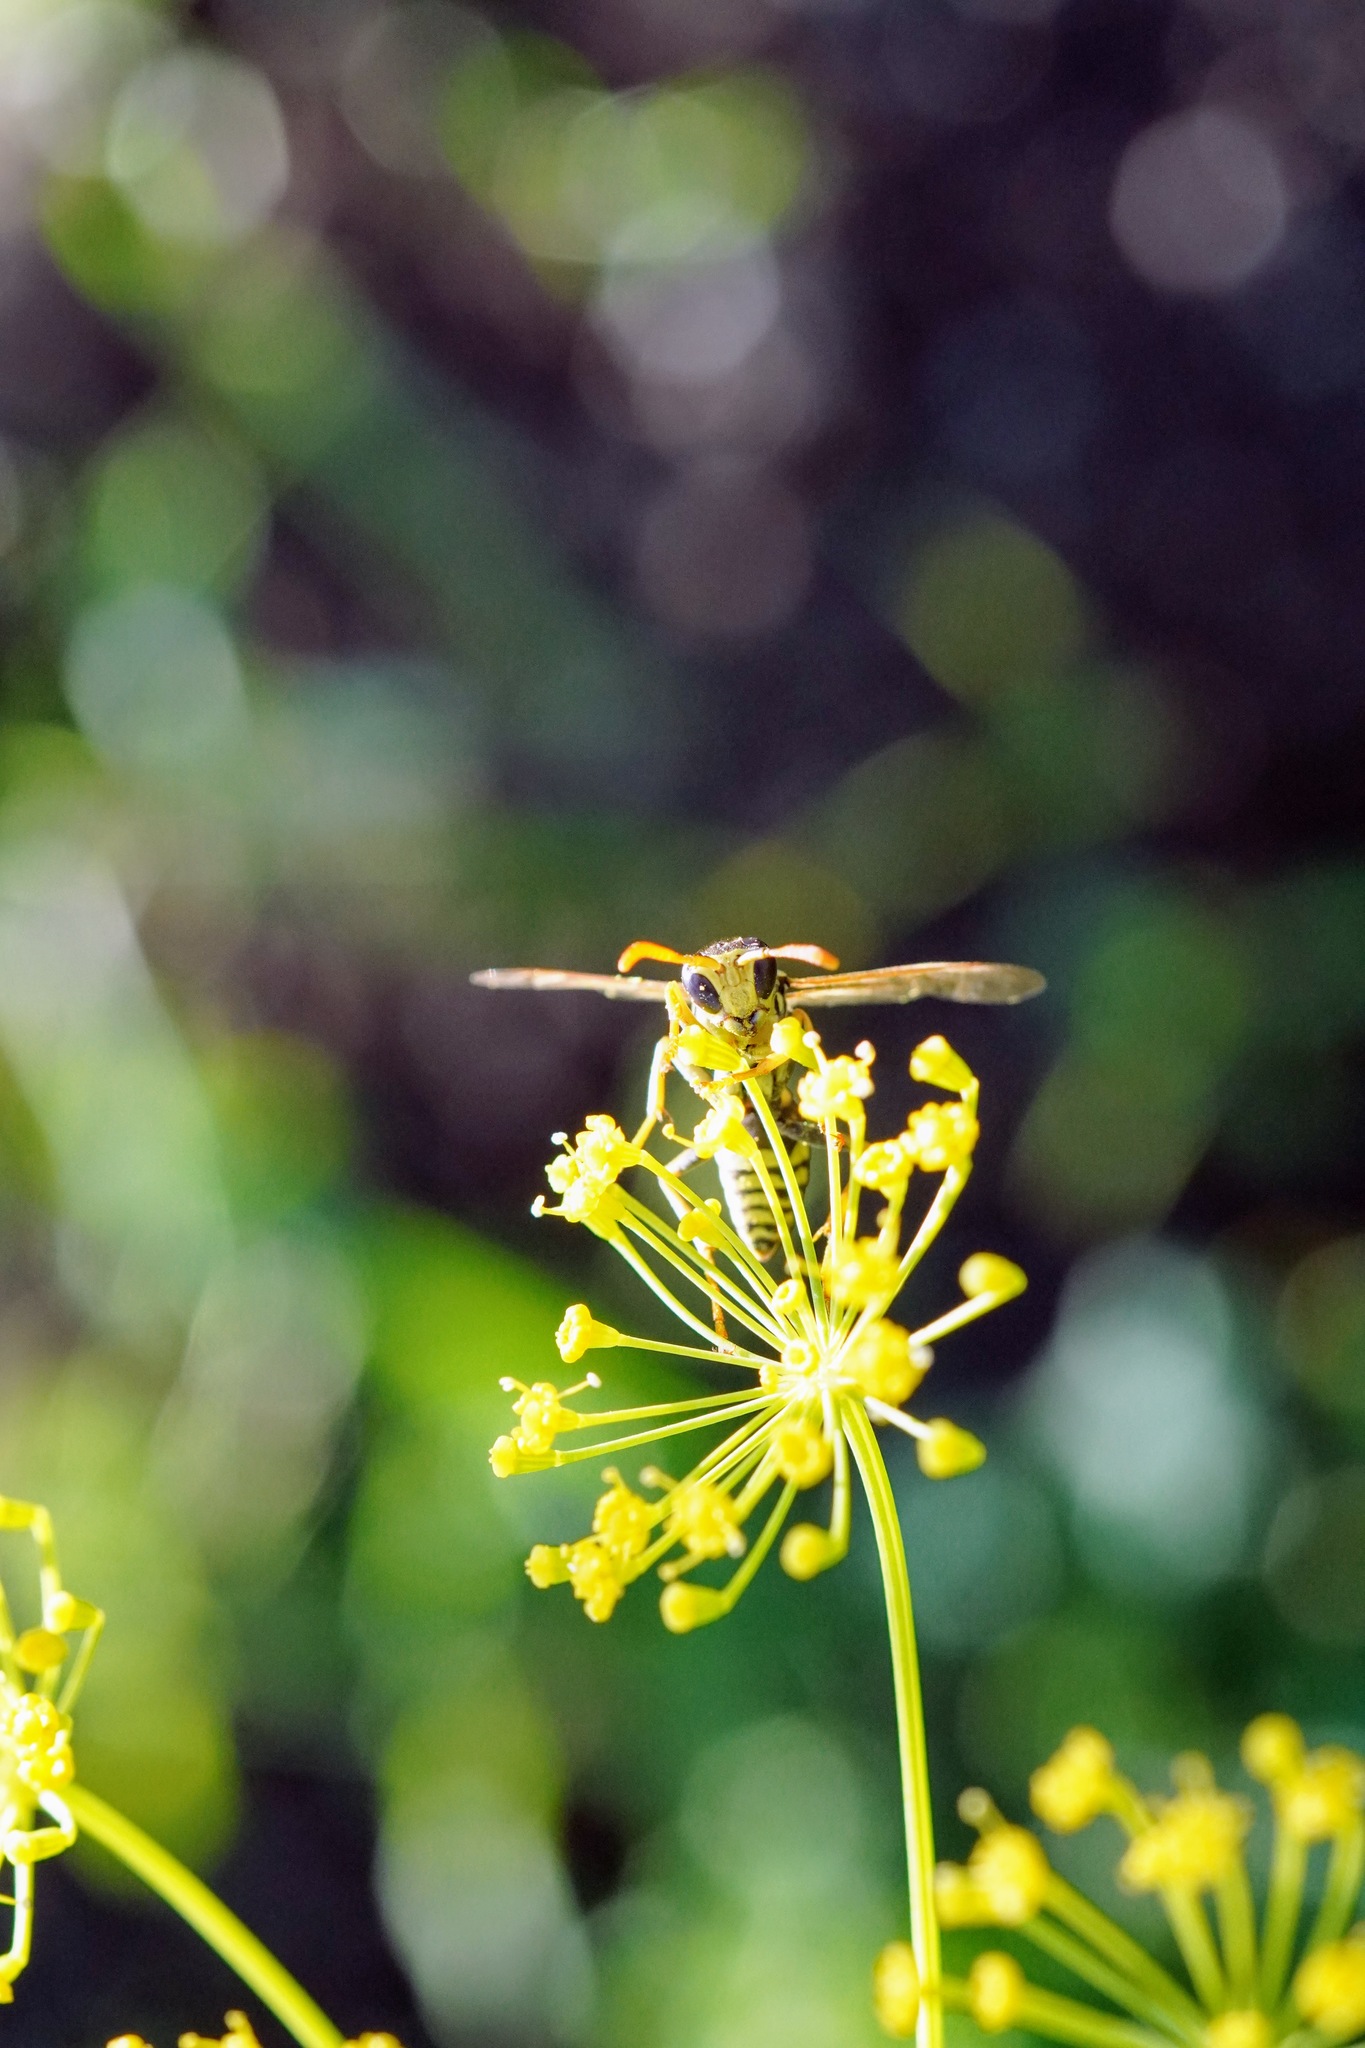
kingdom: Animalia
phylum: Arthropoda
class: Insecta
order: Hymenoptera
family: Eumenidae
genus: Polistes
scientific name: Polistes dominula
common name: Paper wasp
